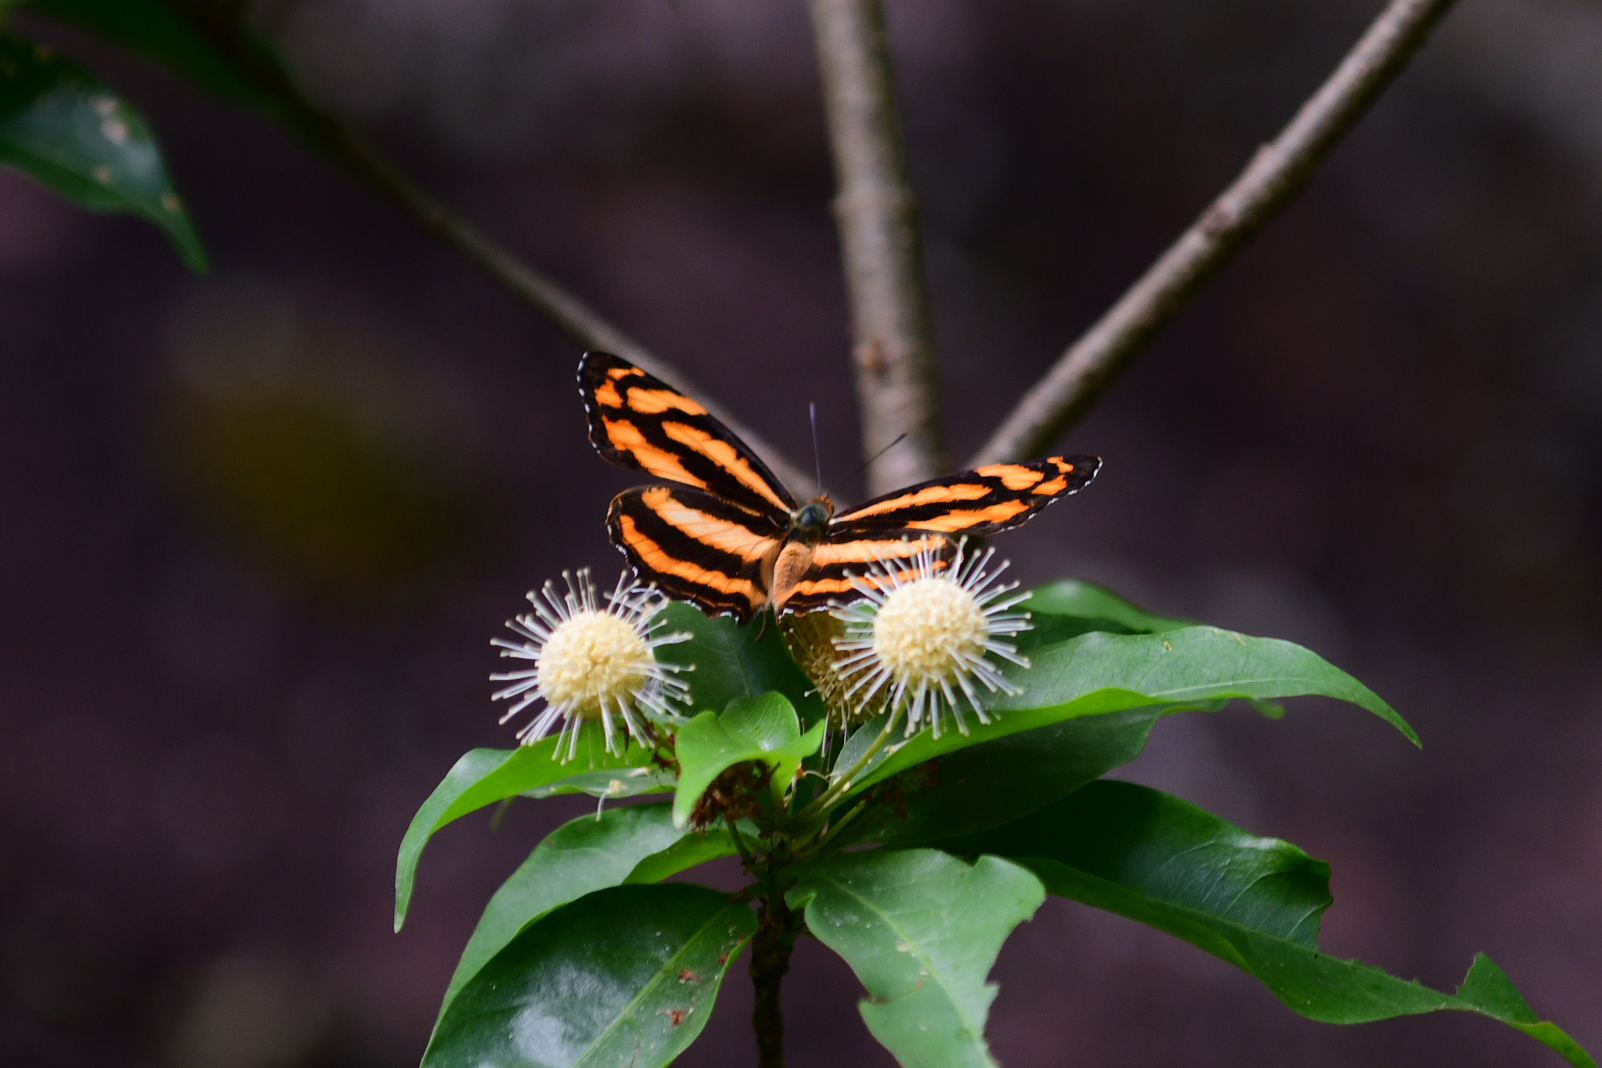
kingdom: Animalia
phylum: Arthropoda
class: Insecta
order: Lepidoptera
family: Nymphalidae
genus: Symbrenthia
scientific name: Symbrenthia hypselis
